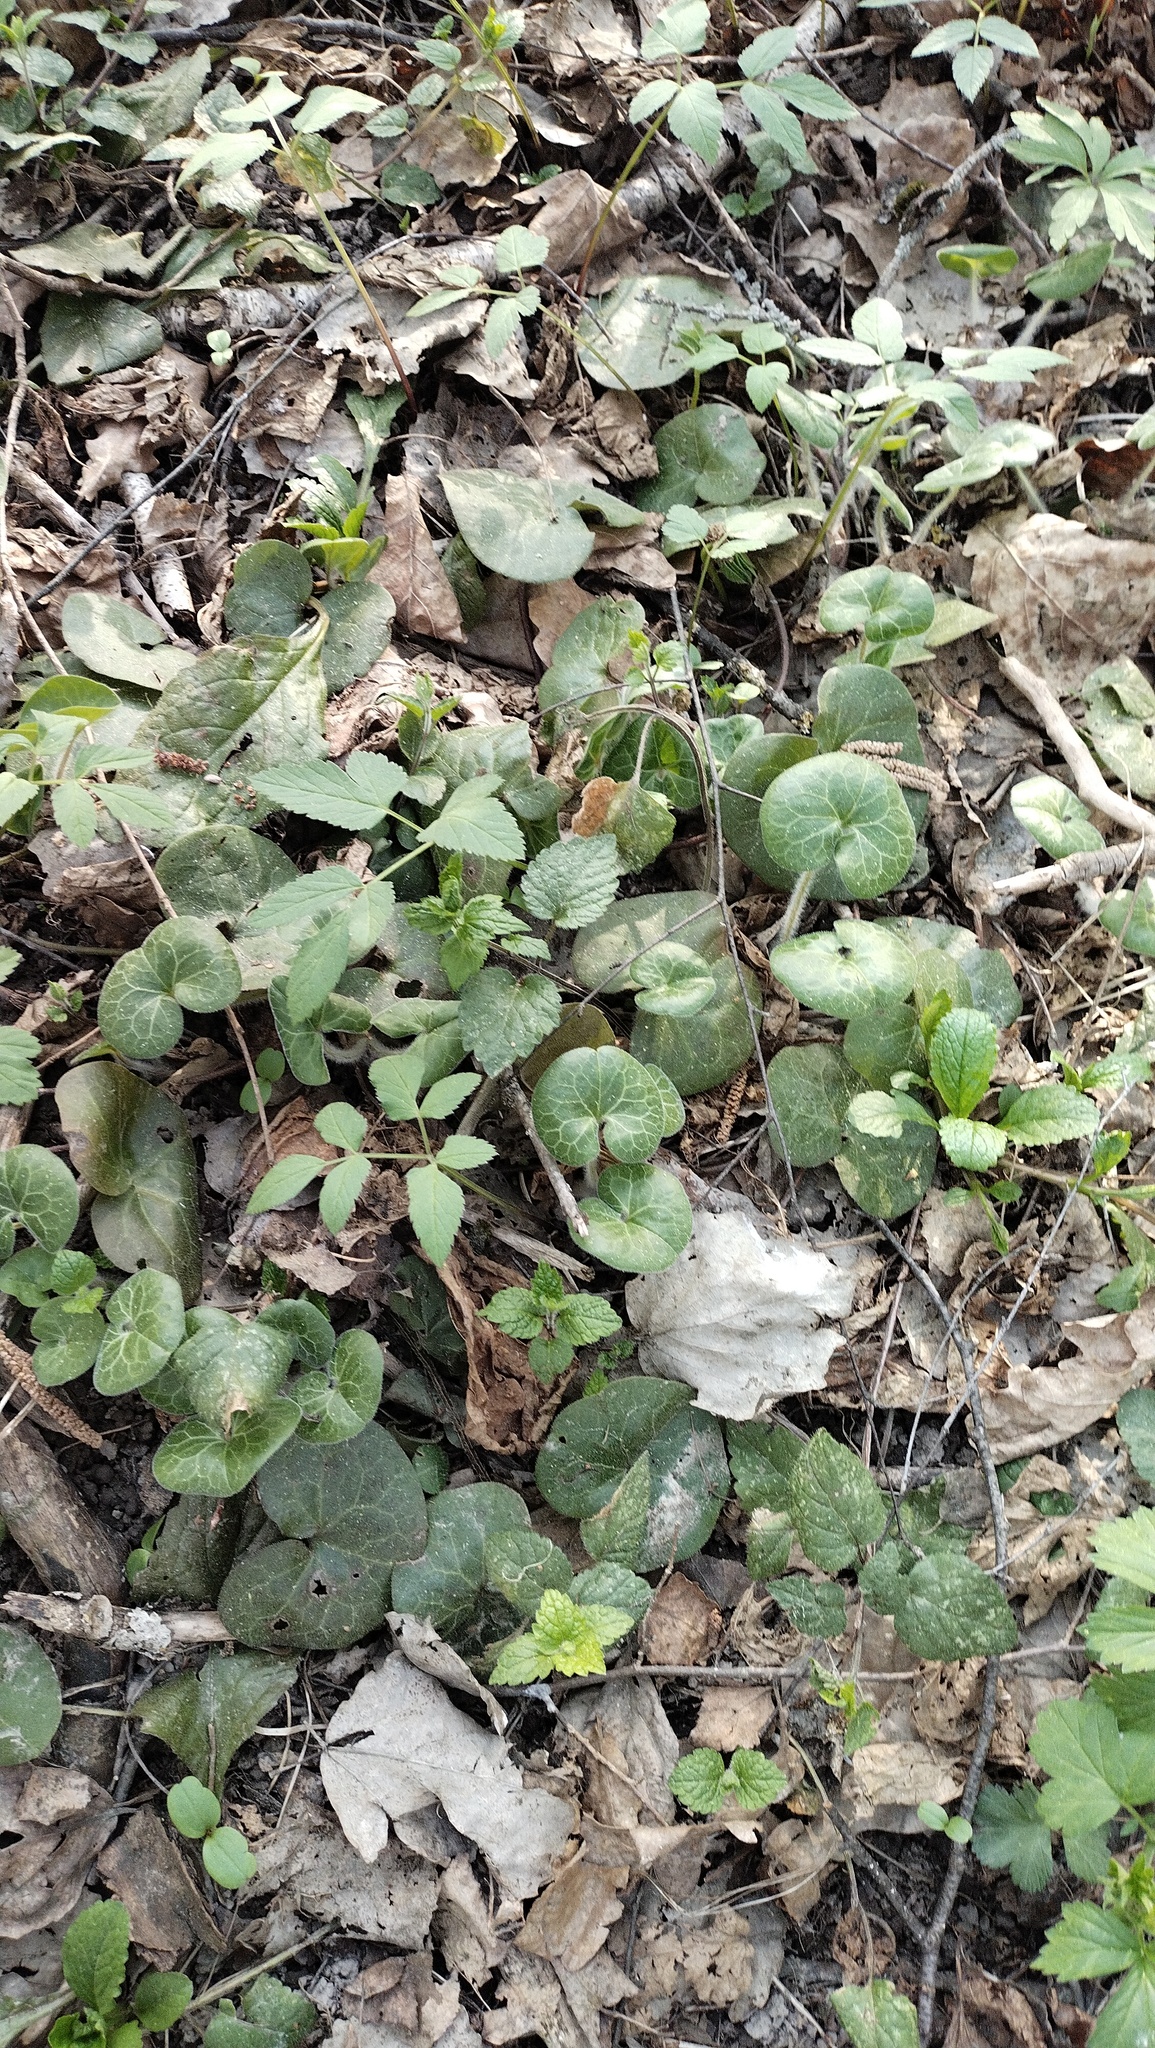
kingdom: Plantae
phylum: Tracheophyta
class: Magnoliopsida
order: Piperales
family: Aristolochiaceae
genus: Asarum
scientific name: Asarum europaeum
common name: Asarabacca
